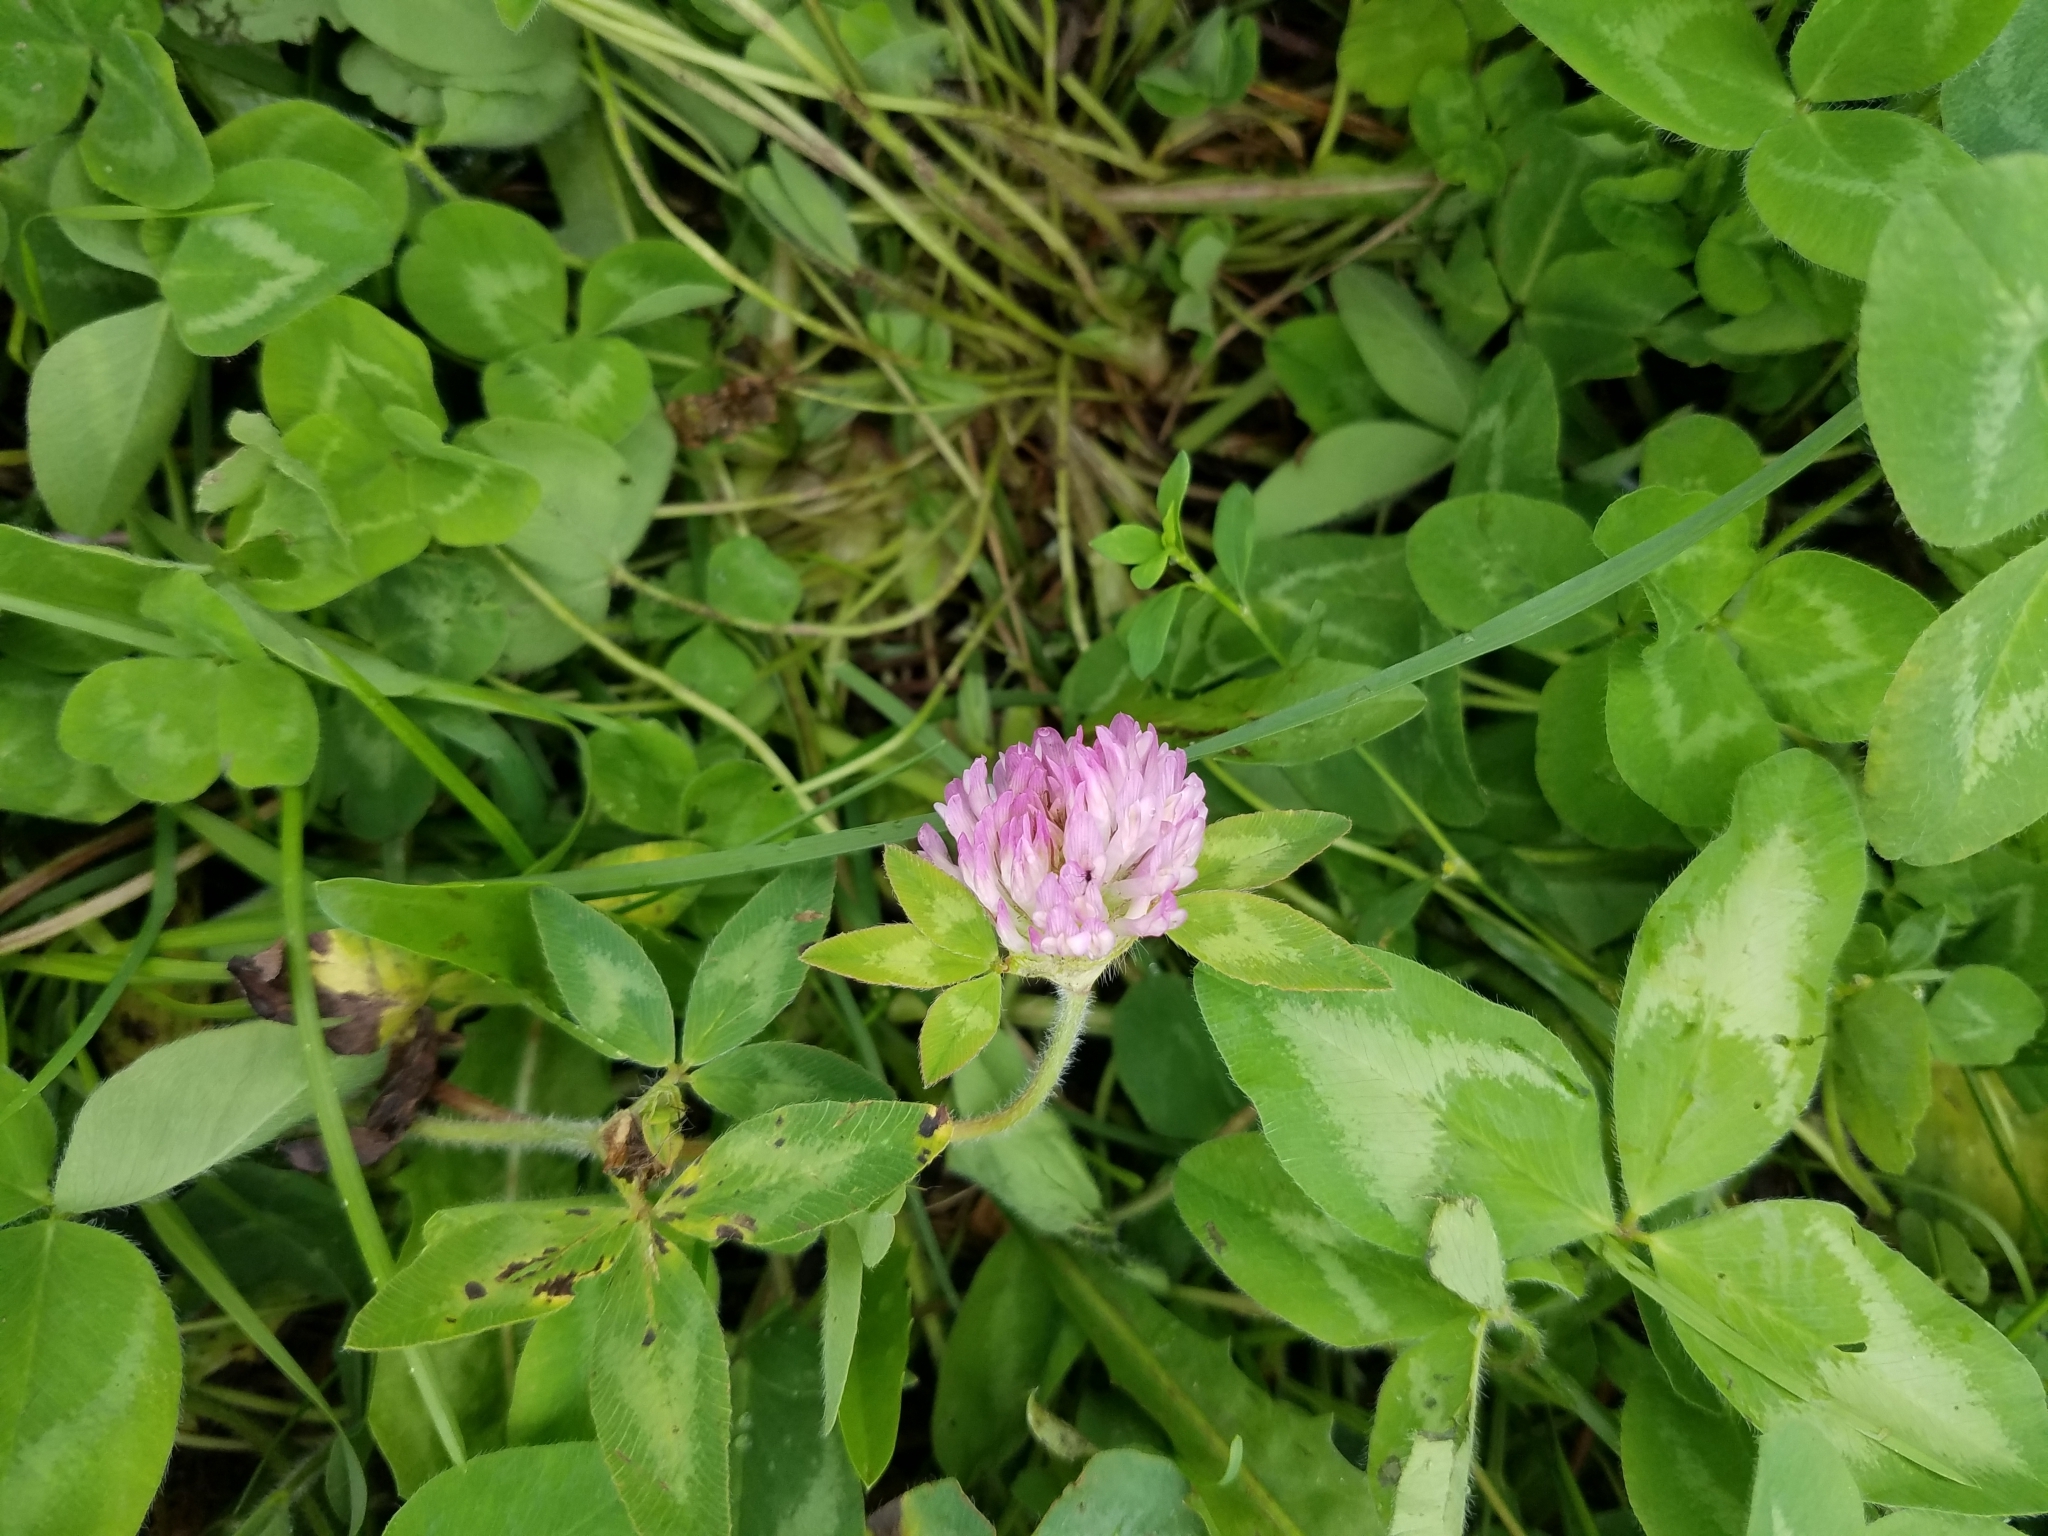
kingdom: Plantae
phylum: Tracheophyta
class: Magnoliopsida
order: Fabales
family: Fabaceae
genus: Trifolium
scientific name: Trifolium pratense
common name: Red clover
